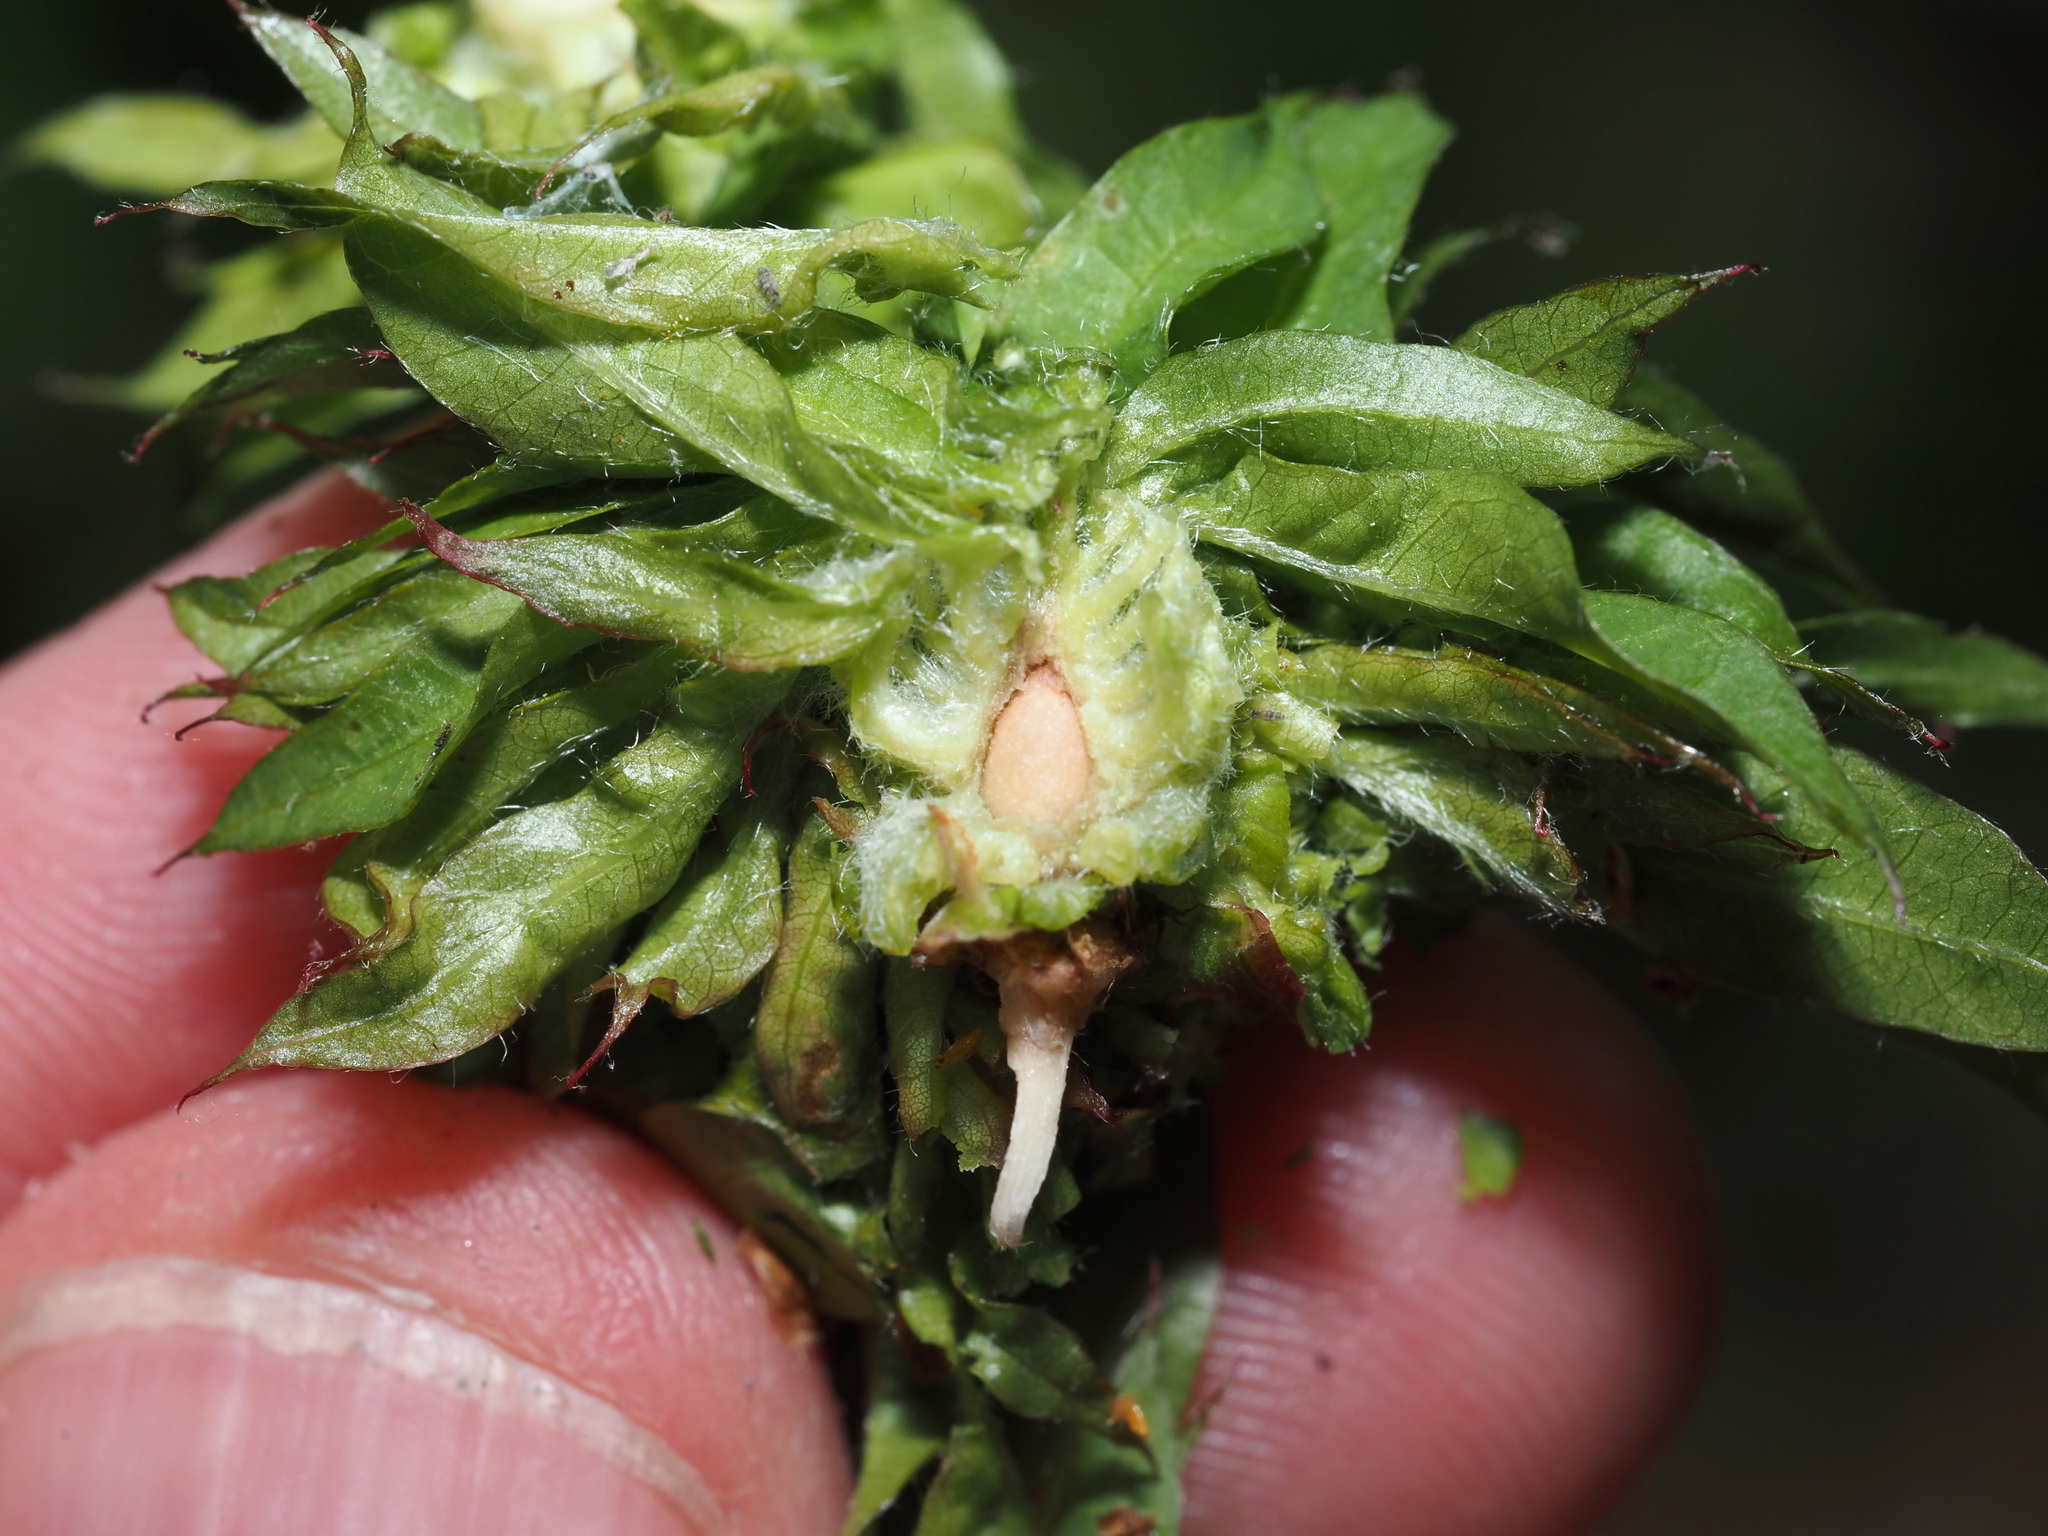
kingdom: Animalia
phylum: Arthropoda
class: Insecta
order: Hymenoptera
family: Cynipidae
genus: Dryocosmus
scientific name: Dryocosmus
